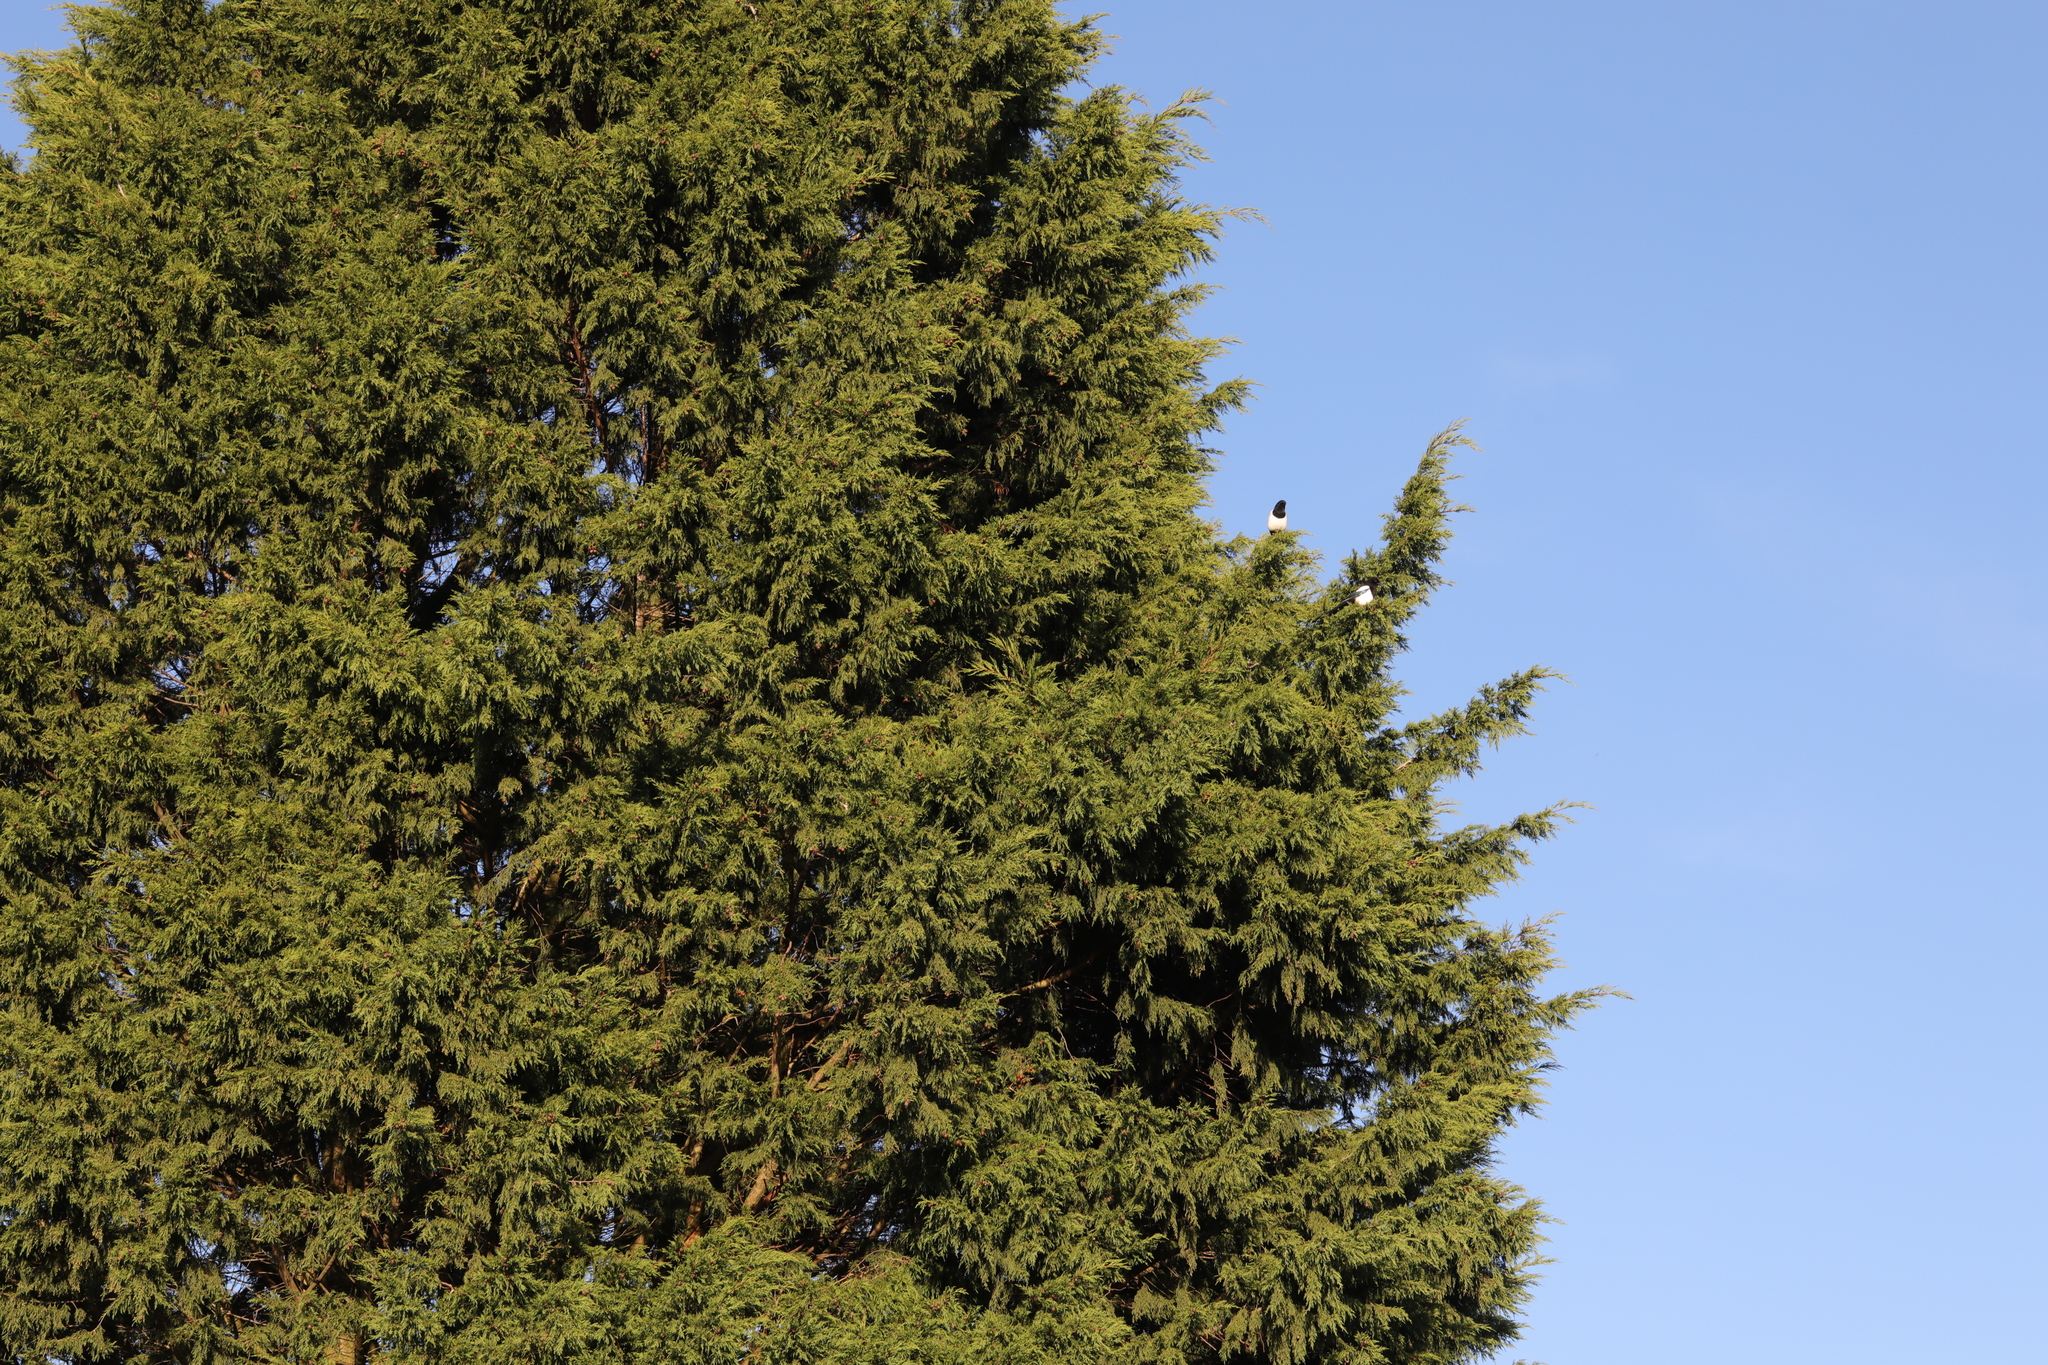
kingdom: Animalia
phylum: Chordata
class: Aves
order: Passeriformes
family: Corvidae
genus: Pica
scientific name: Pica pica
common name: Eurasian magpie
